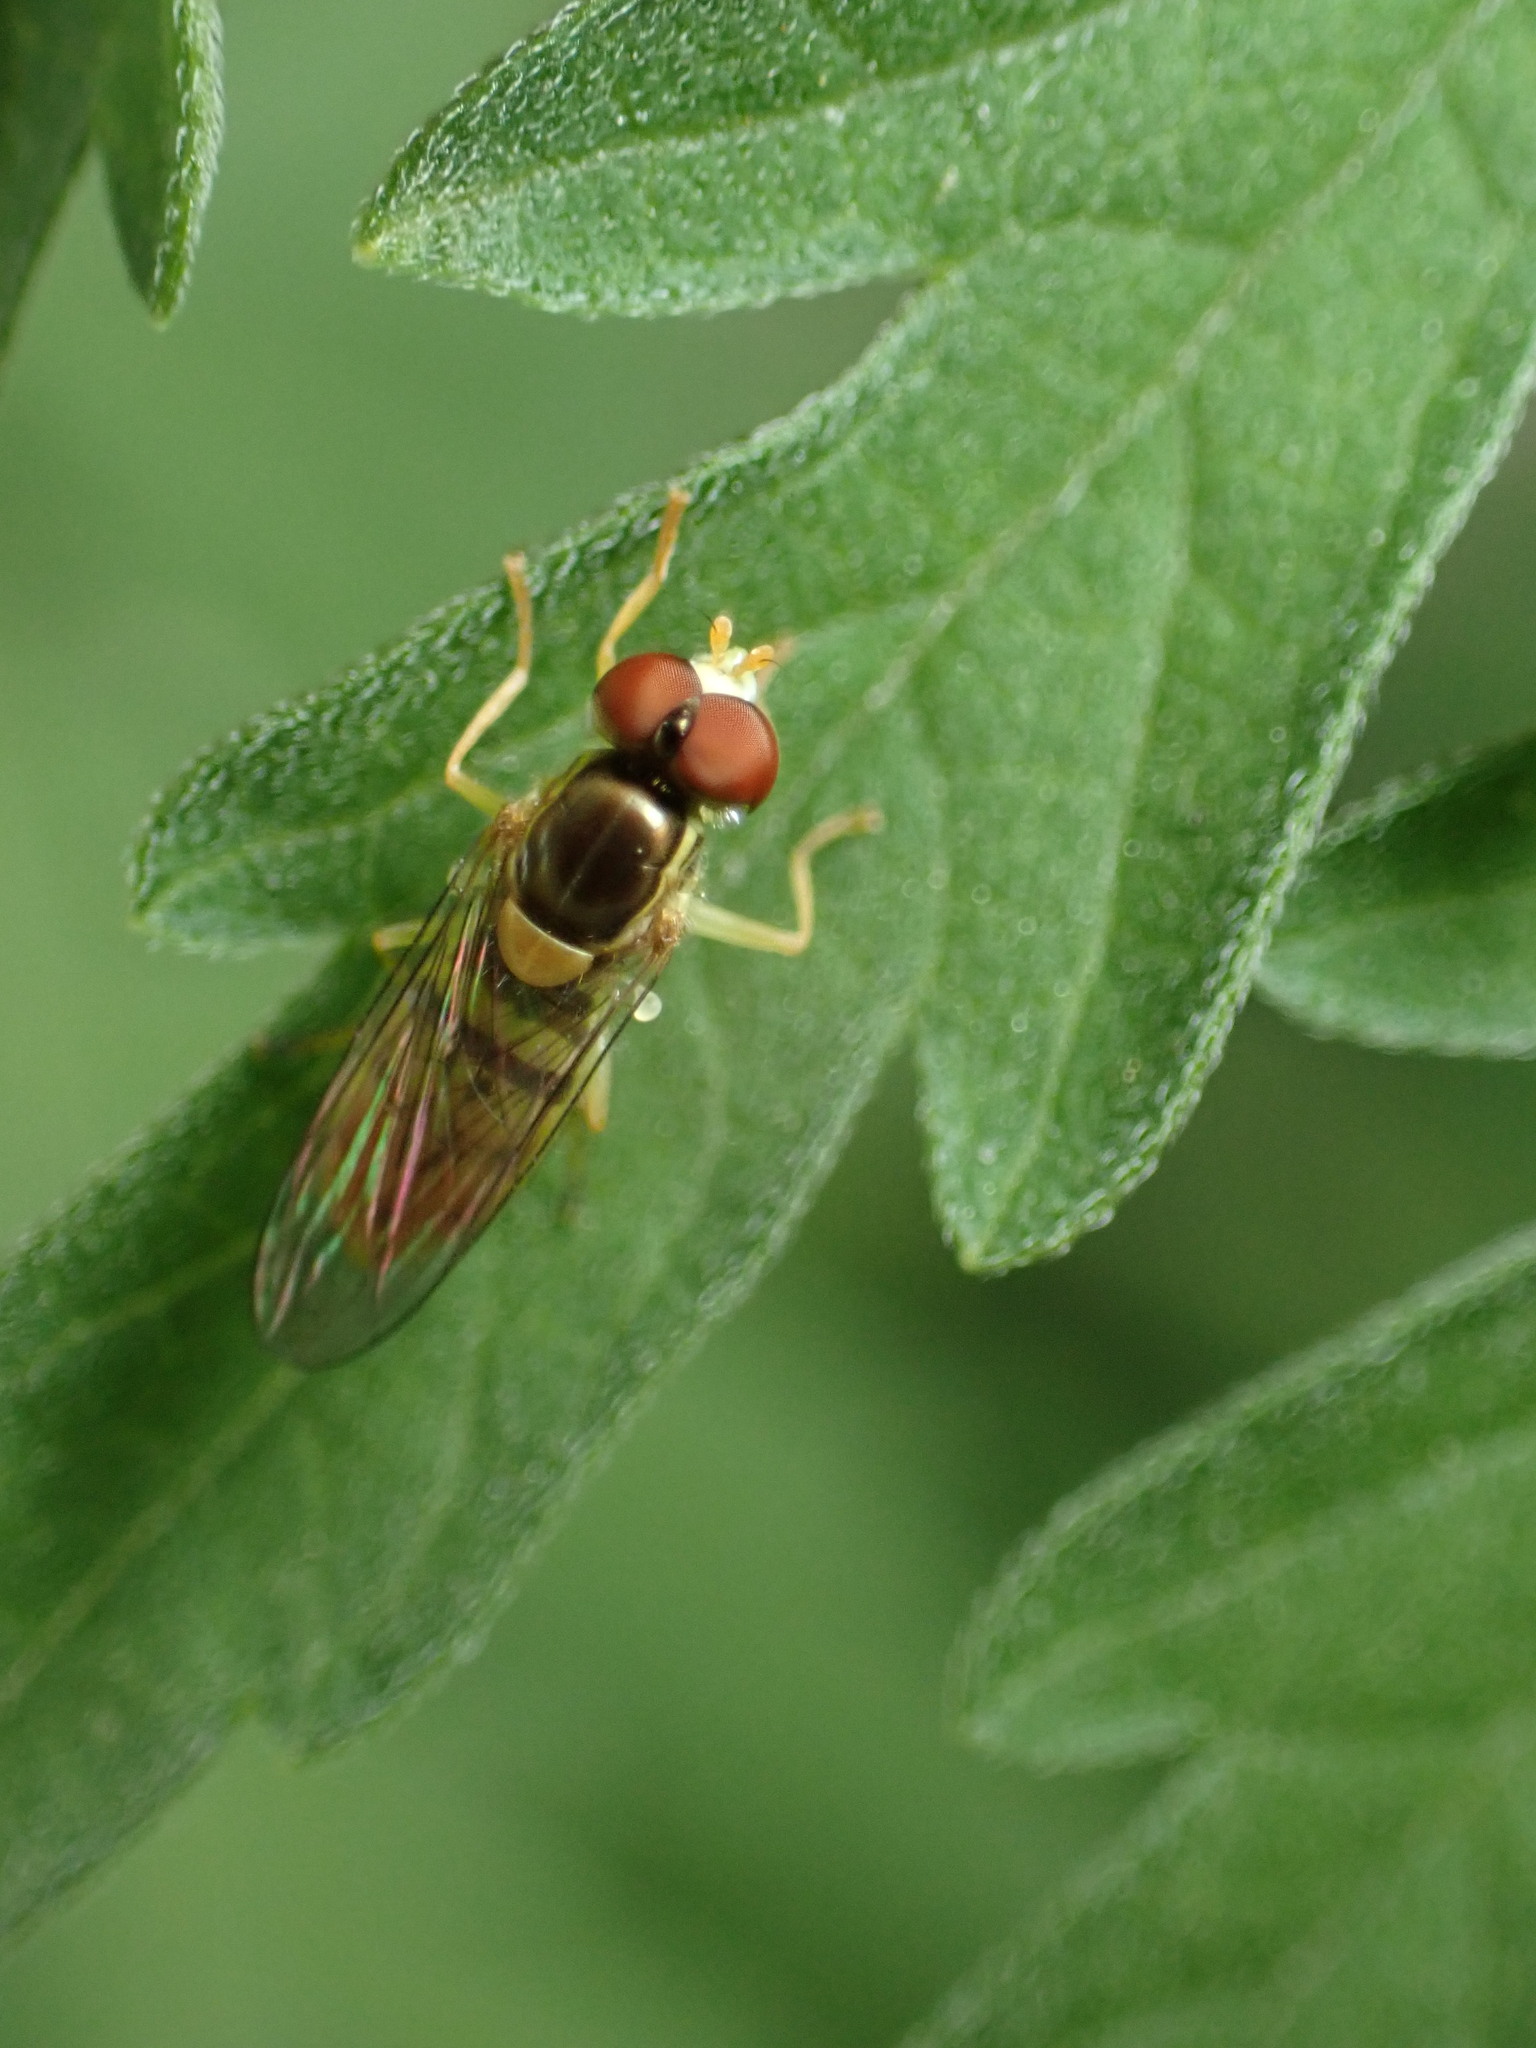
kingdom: Animalia
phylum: Arthropoda
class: Insecta
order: Diptera
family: Syrphidae
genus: Toxomerus
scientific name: Toxomerus marginatus
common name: Syrphid fly
